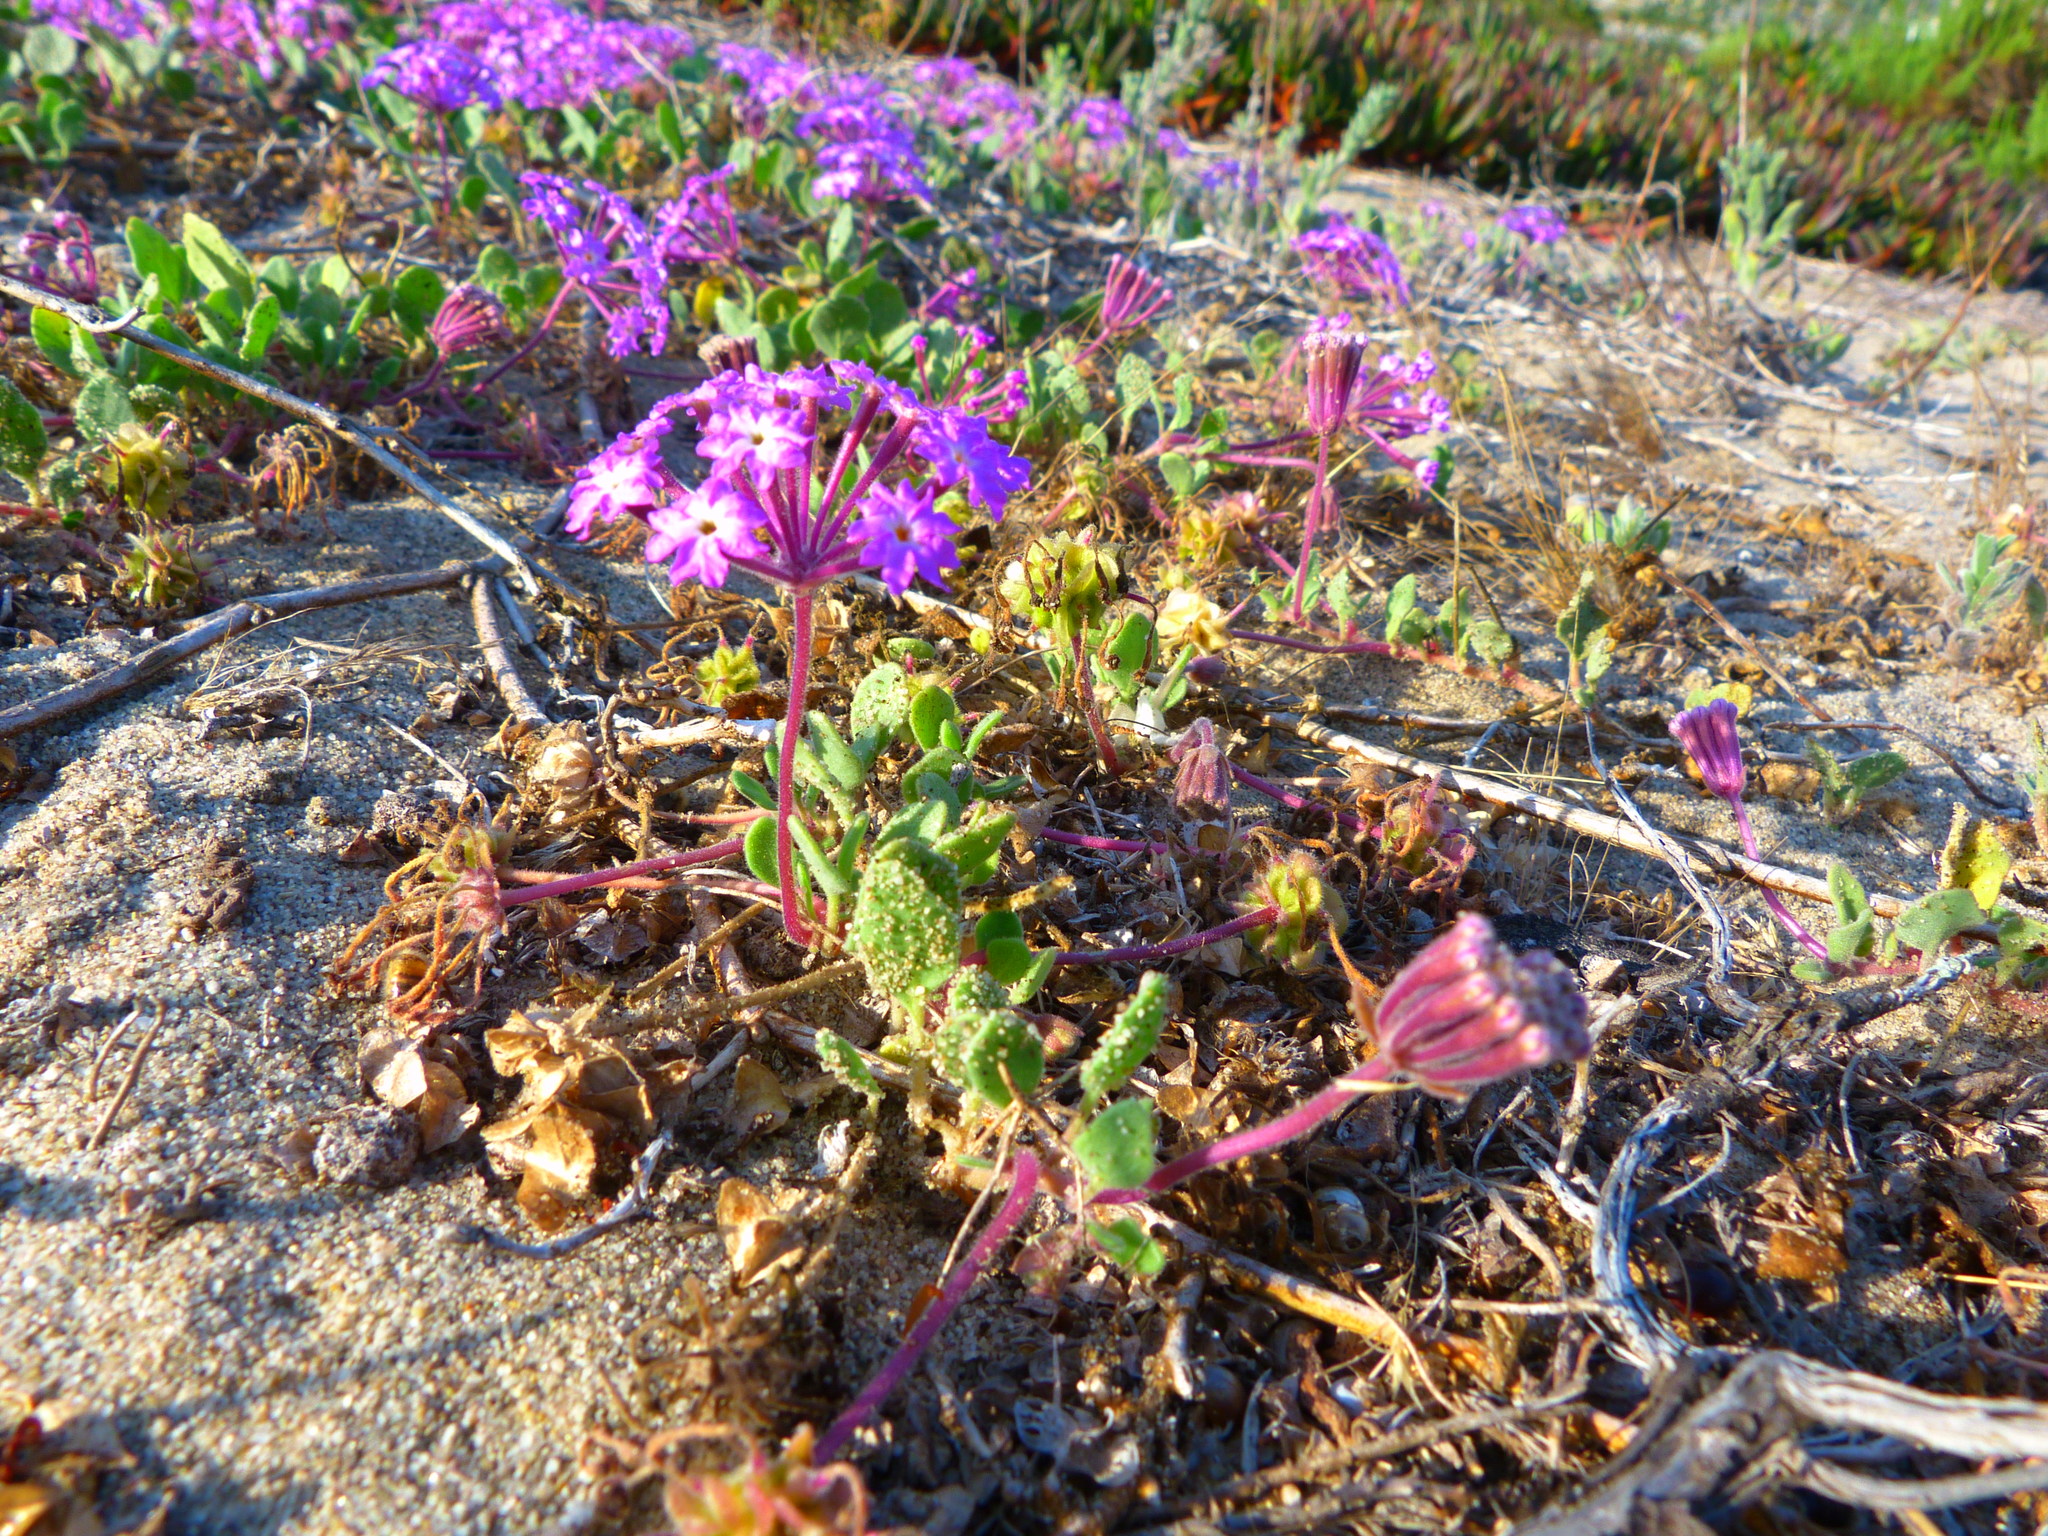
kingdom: Plantae
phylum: Tracheophyta
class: Magnoliopsida
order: Caryophyllales
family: Nyctaginaceae
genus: Abronia
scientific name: Abronia umbellata
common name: Sand-verbena
